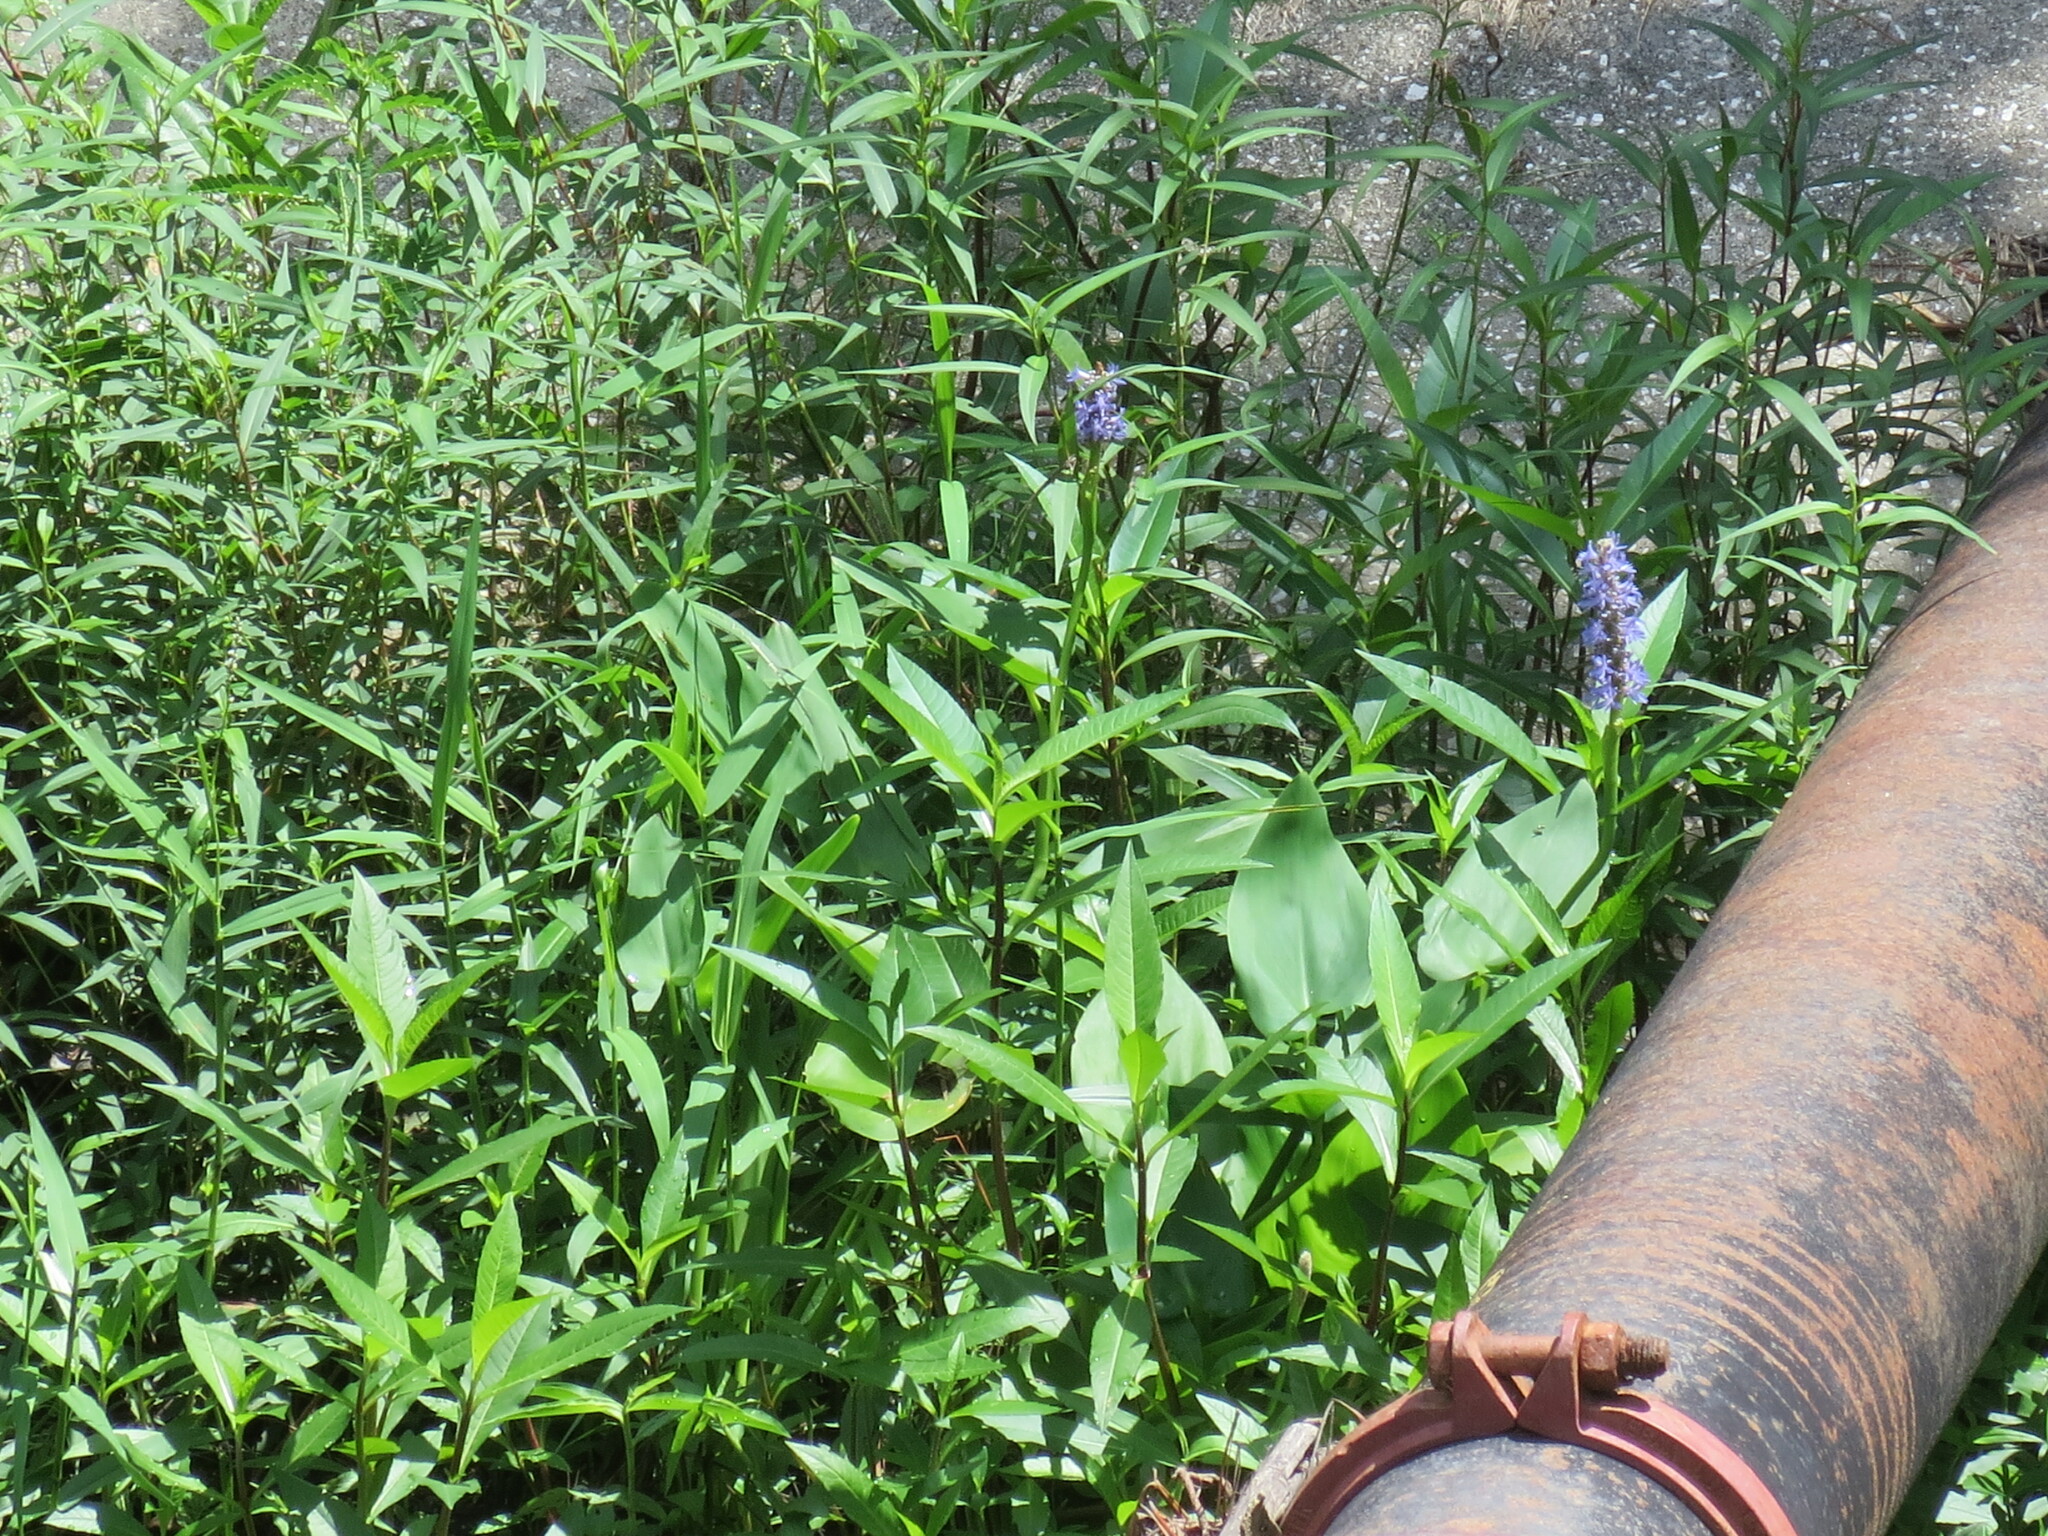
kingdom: Plantae
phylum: Tracheophyta
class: Liliopsida
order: Commelinales
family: Pontederiaceae
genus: Pontederia
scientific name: Pontederia cordata
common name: Pickerelweed
